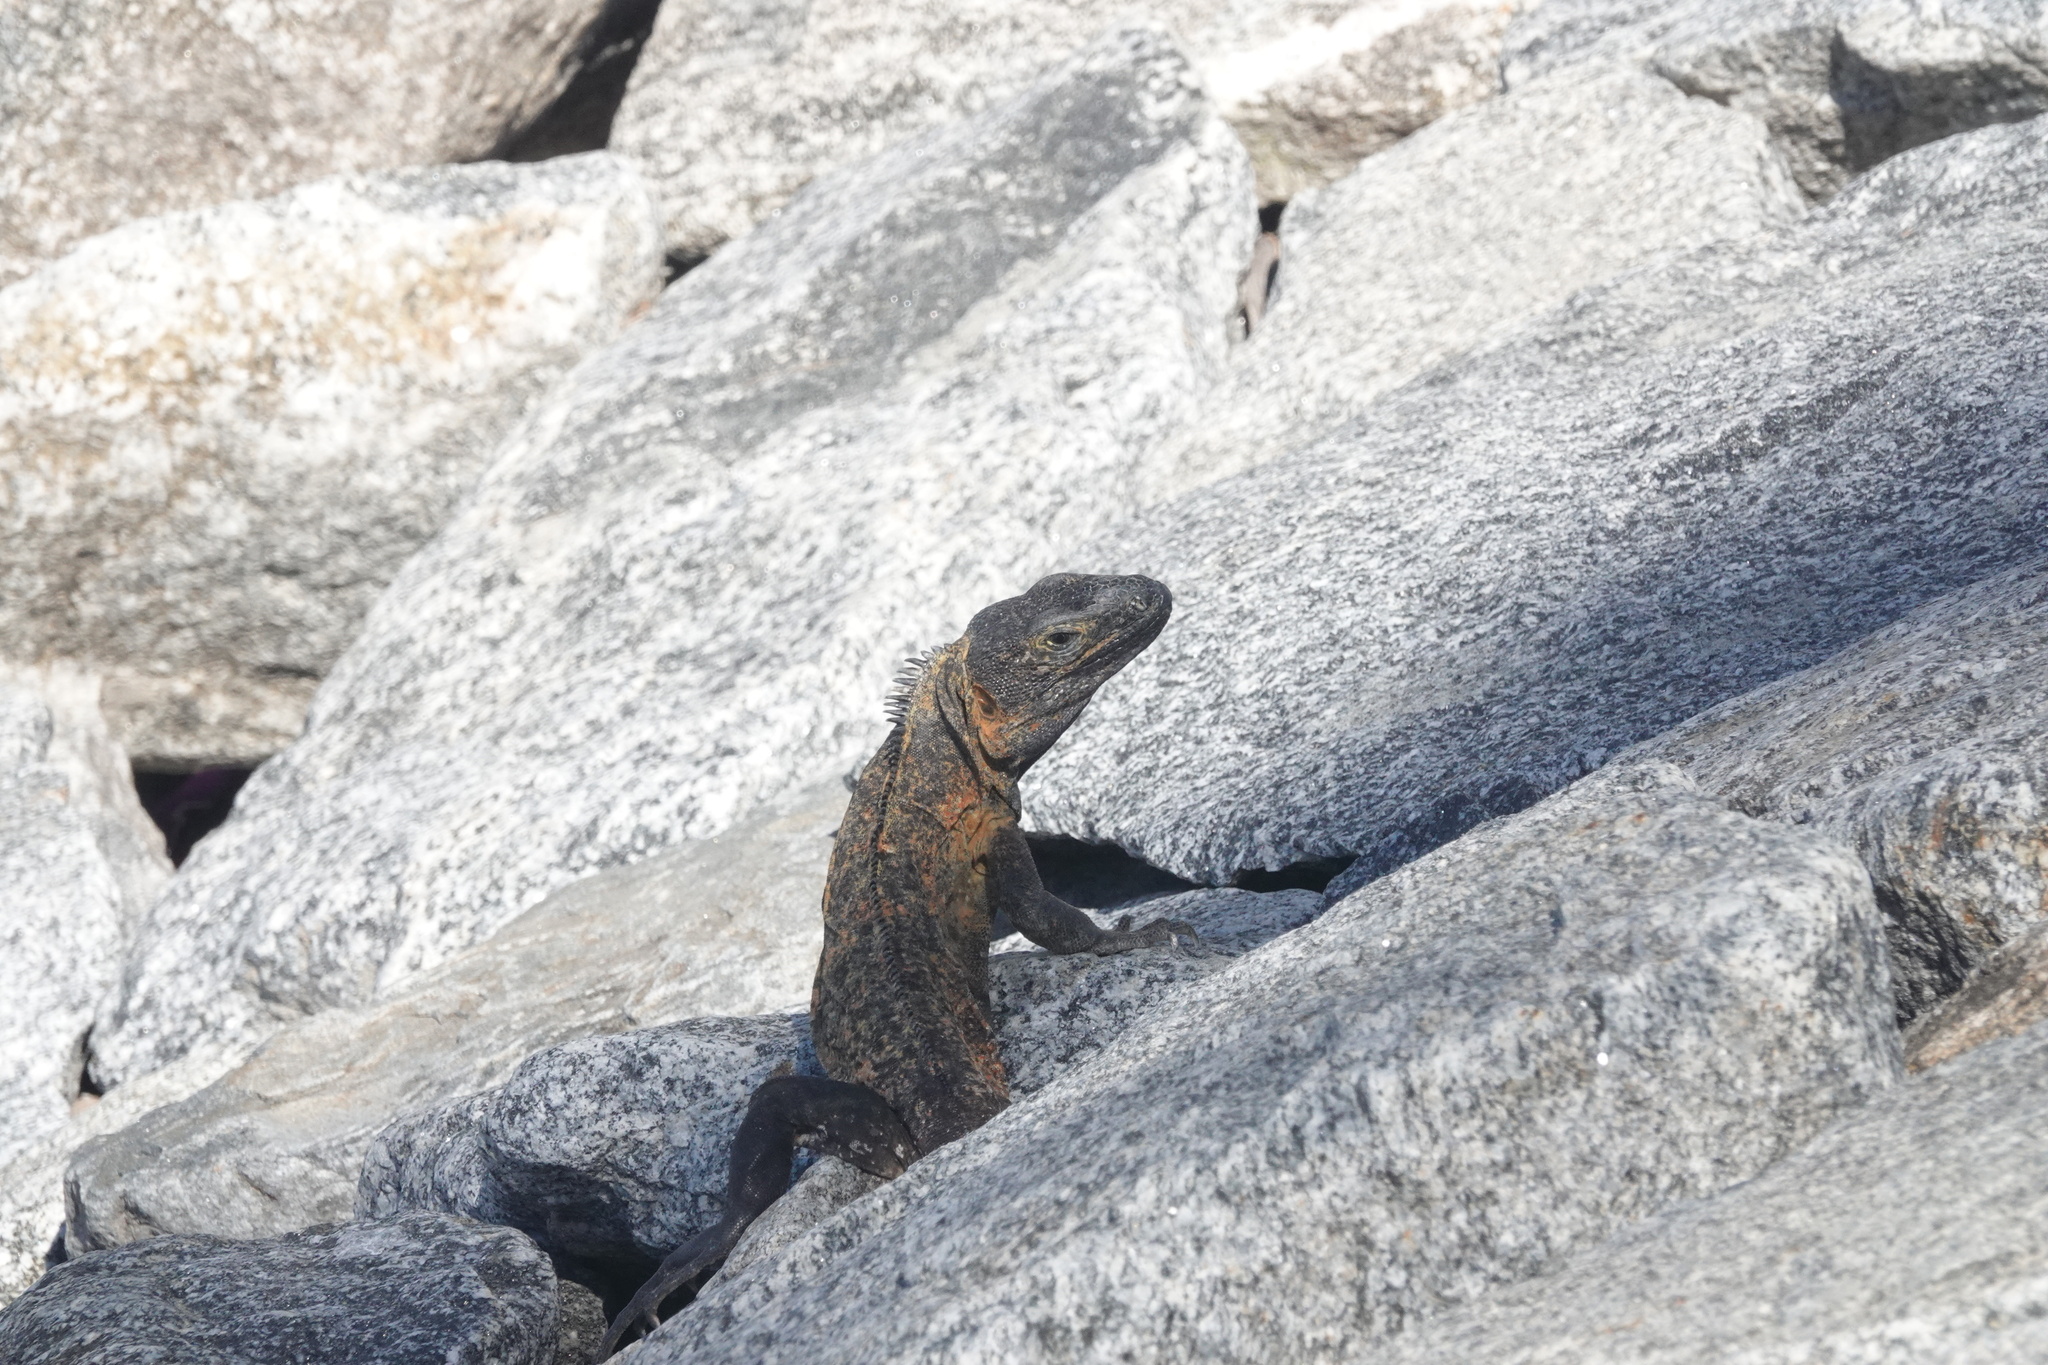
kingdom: Animalia
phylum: Chordata
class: Squamata
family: Iguanidae
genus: Ctenosaura
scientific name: Ctenosaura pectinata
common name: Guerreran spiny-tailed iguana
